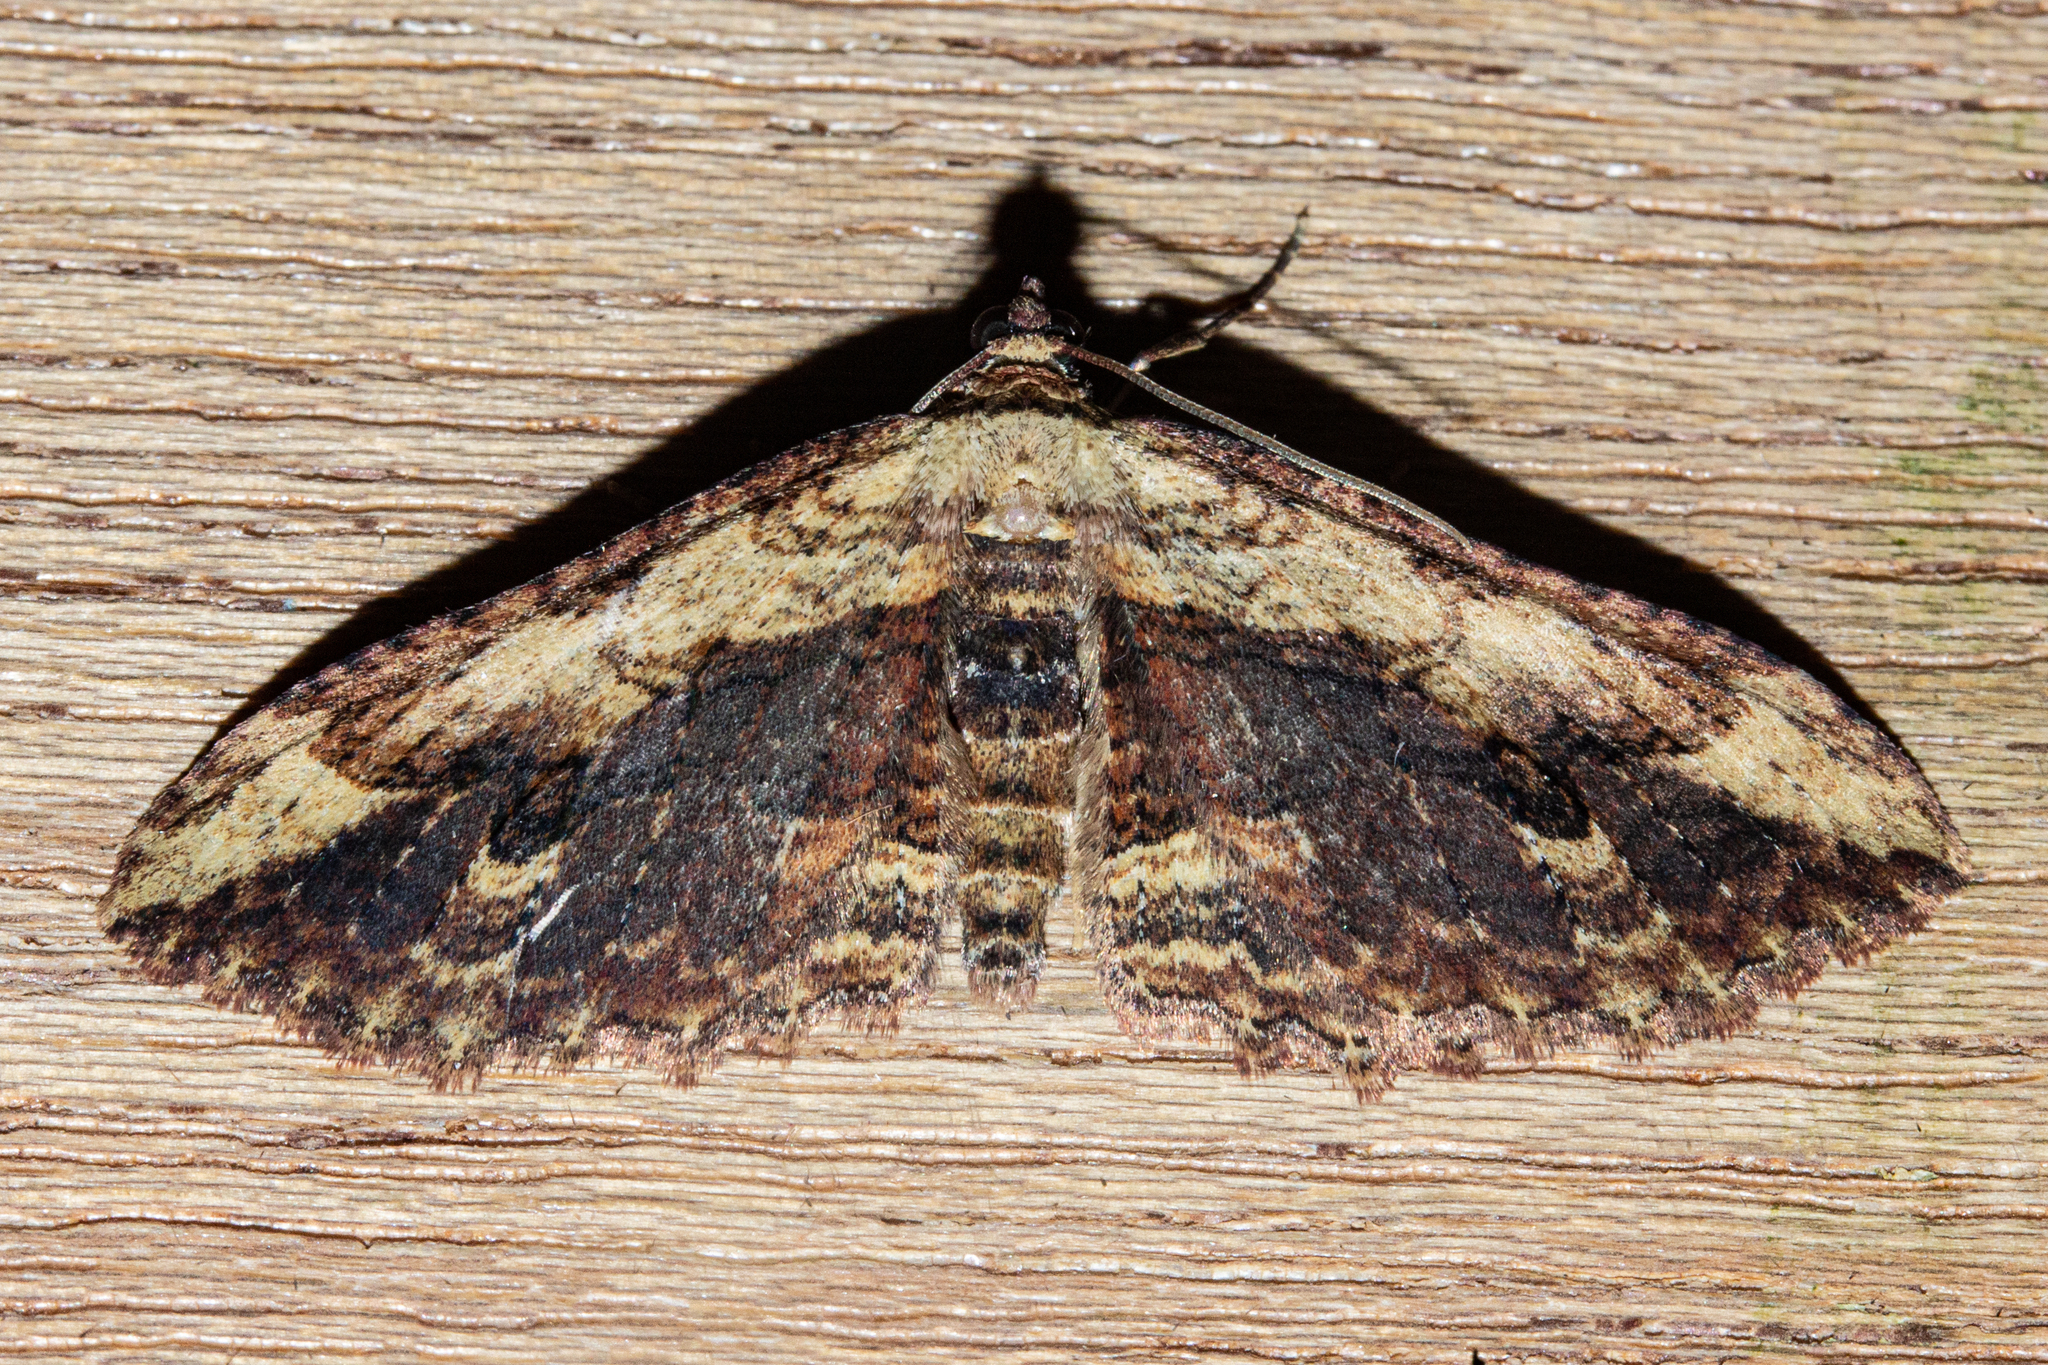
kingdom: Animalia
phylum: Arthropoda
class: Insecta
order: Lepidoptera
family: Geometridae
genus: Austrocidaria
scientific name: Austrocidaria bipartita
